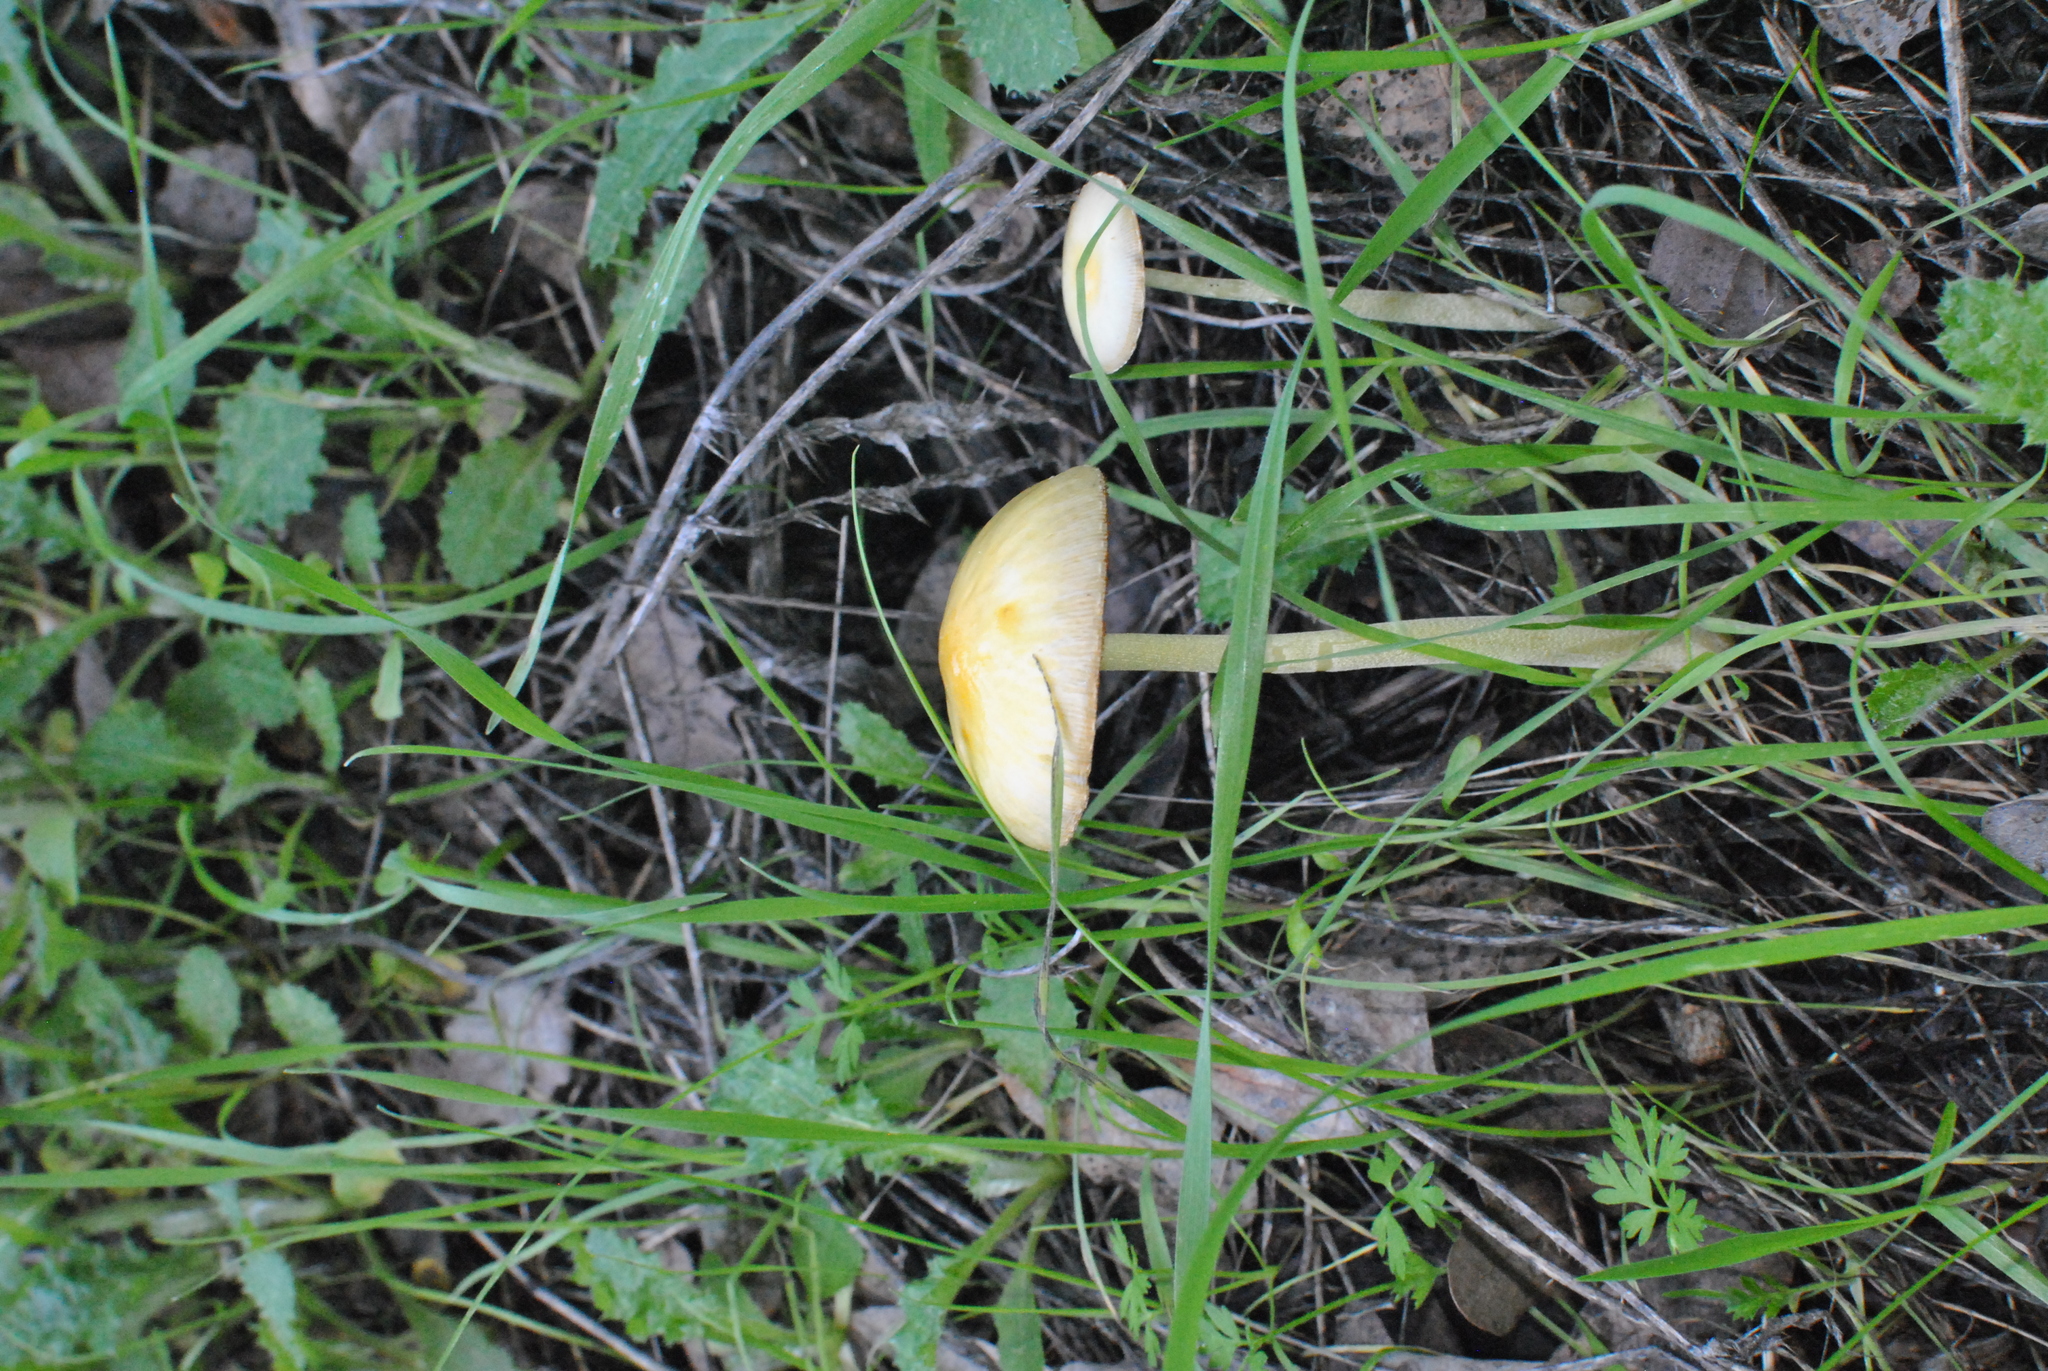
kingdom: Fungi
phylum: Basidiomycota
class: Agaricomycetes
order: Agaricales
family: Bolbitiaceae
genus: Bolbitius
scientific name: Bolbitius titubans
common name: Yellow fieldcap
